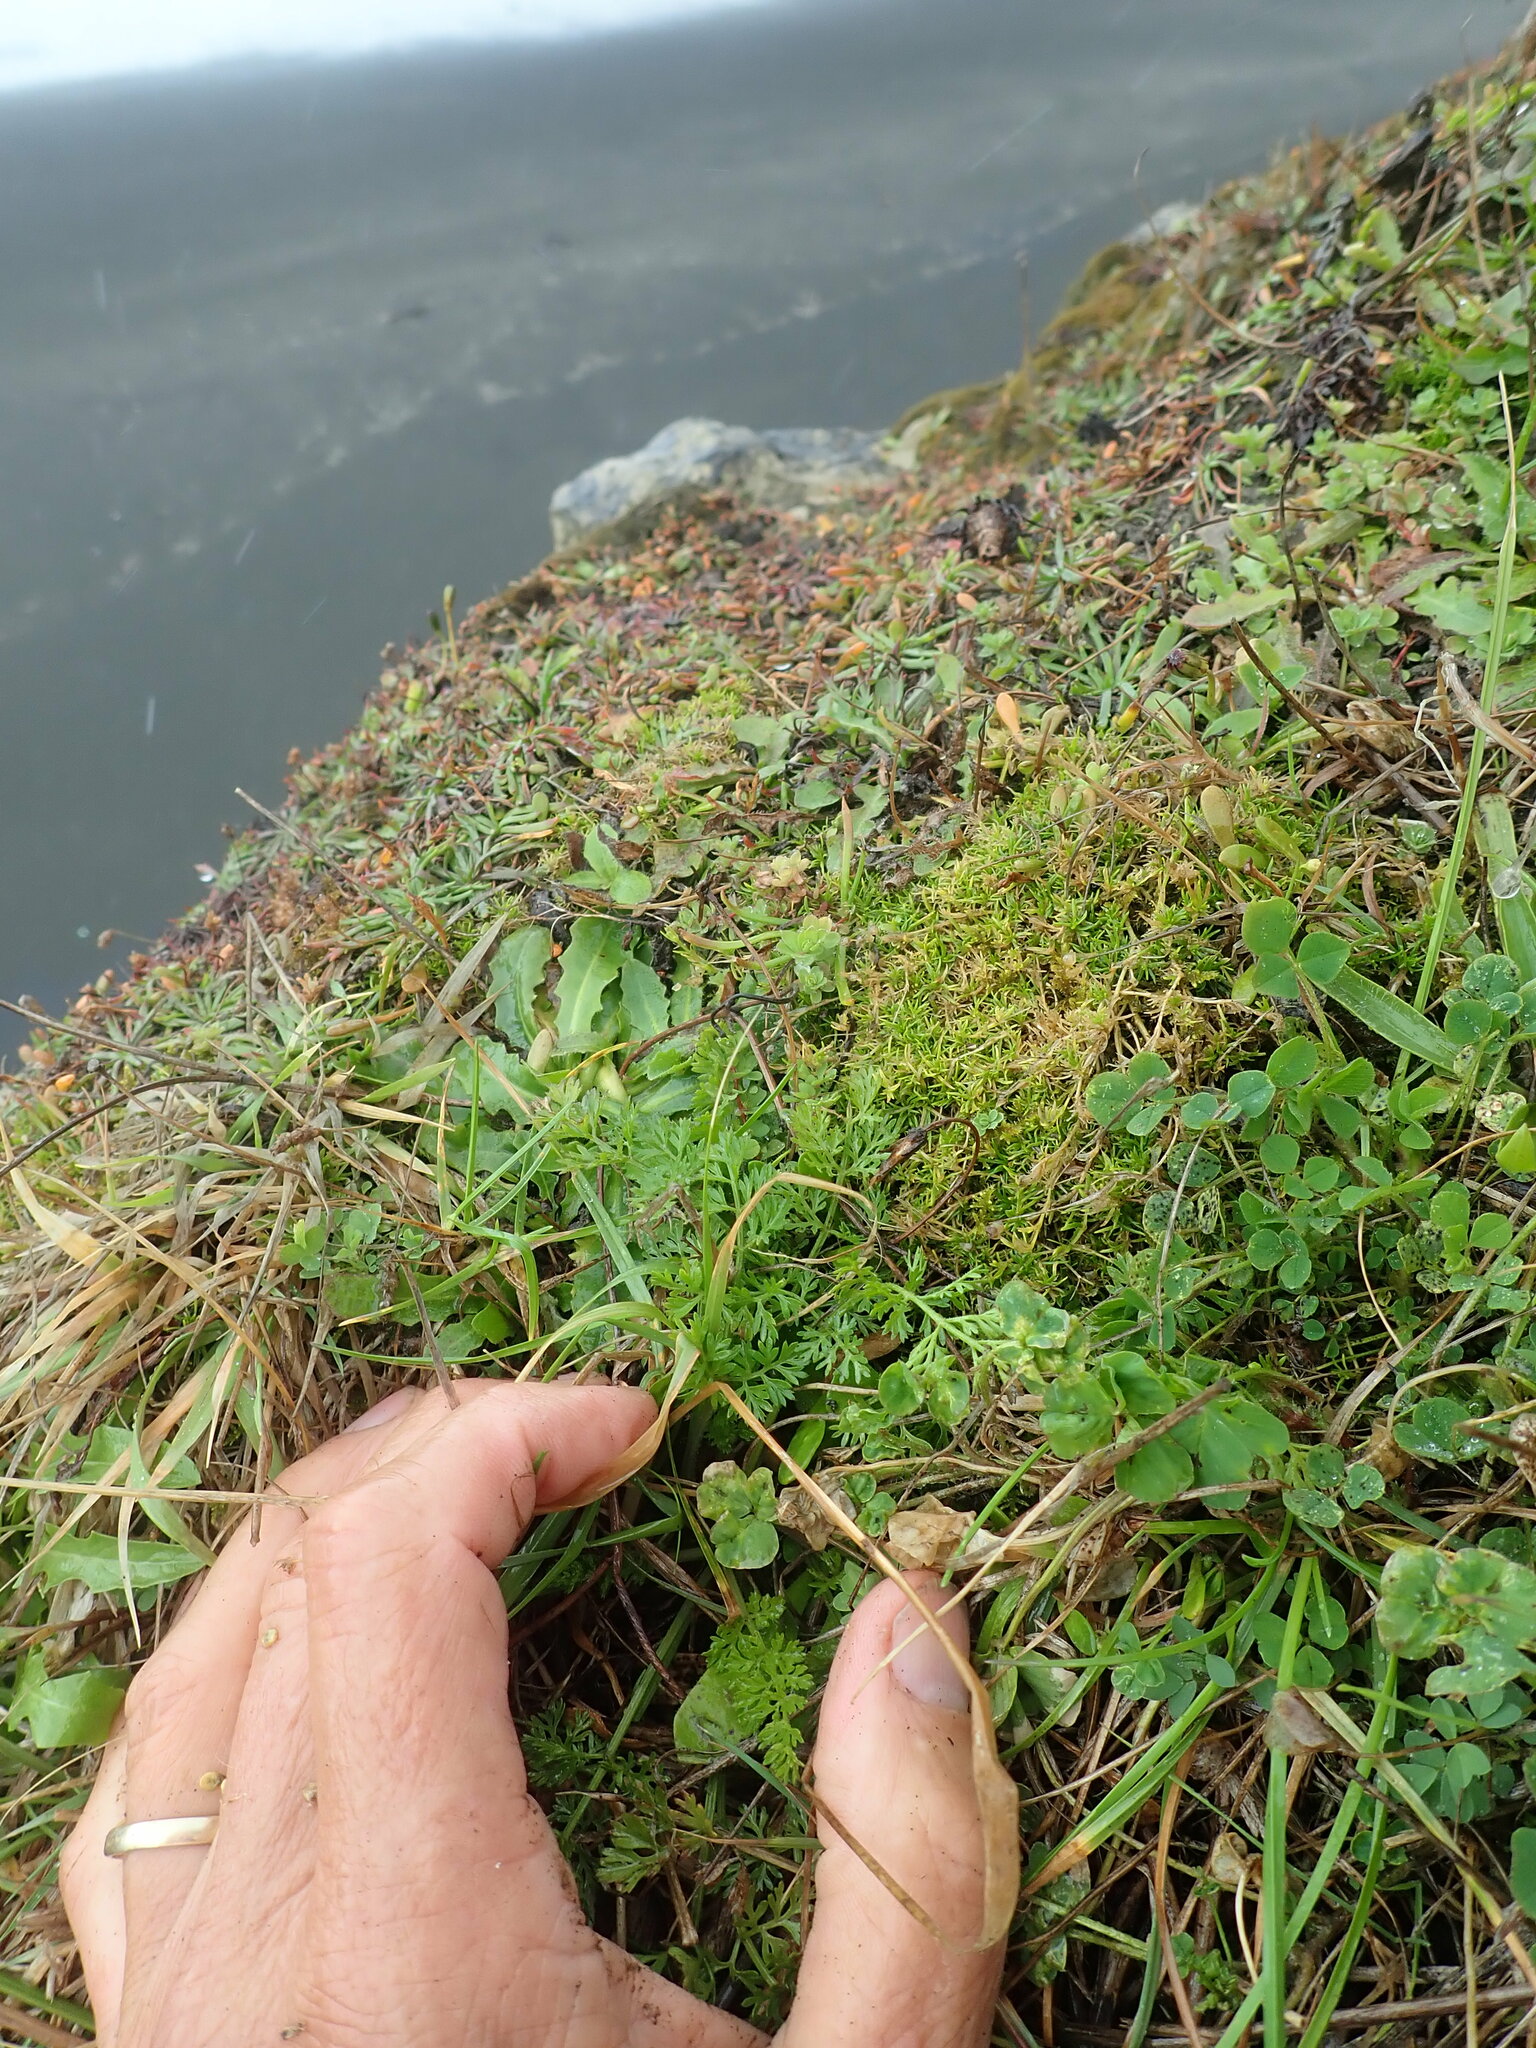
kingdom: Plantae
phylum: Tracheophyta
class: Magnoliopsida
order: Caryophyllales
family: Caryophyllaceae
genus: Sagina
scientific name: Sagina procumbens
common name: Procumbent pearlwort
